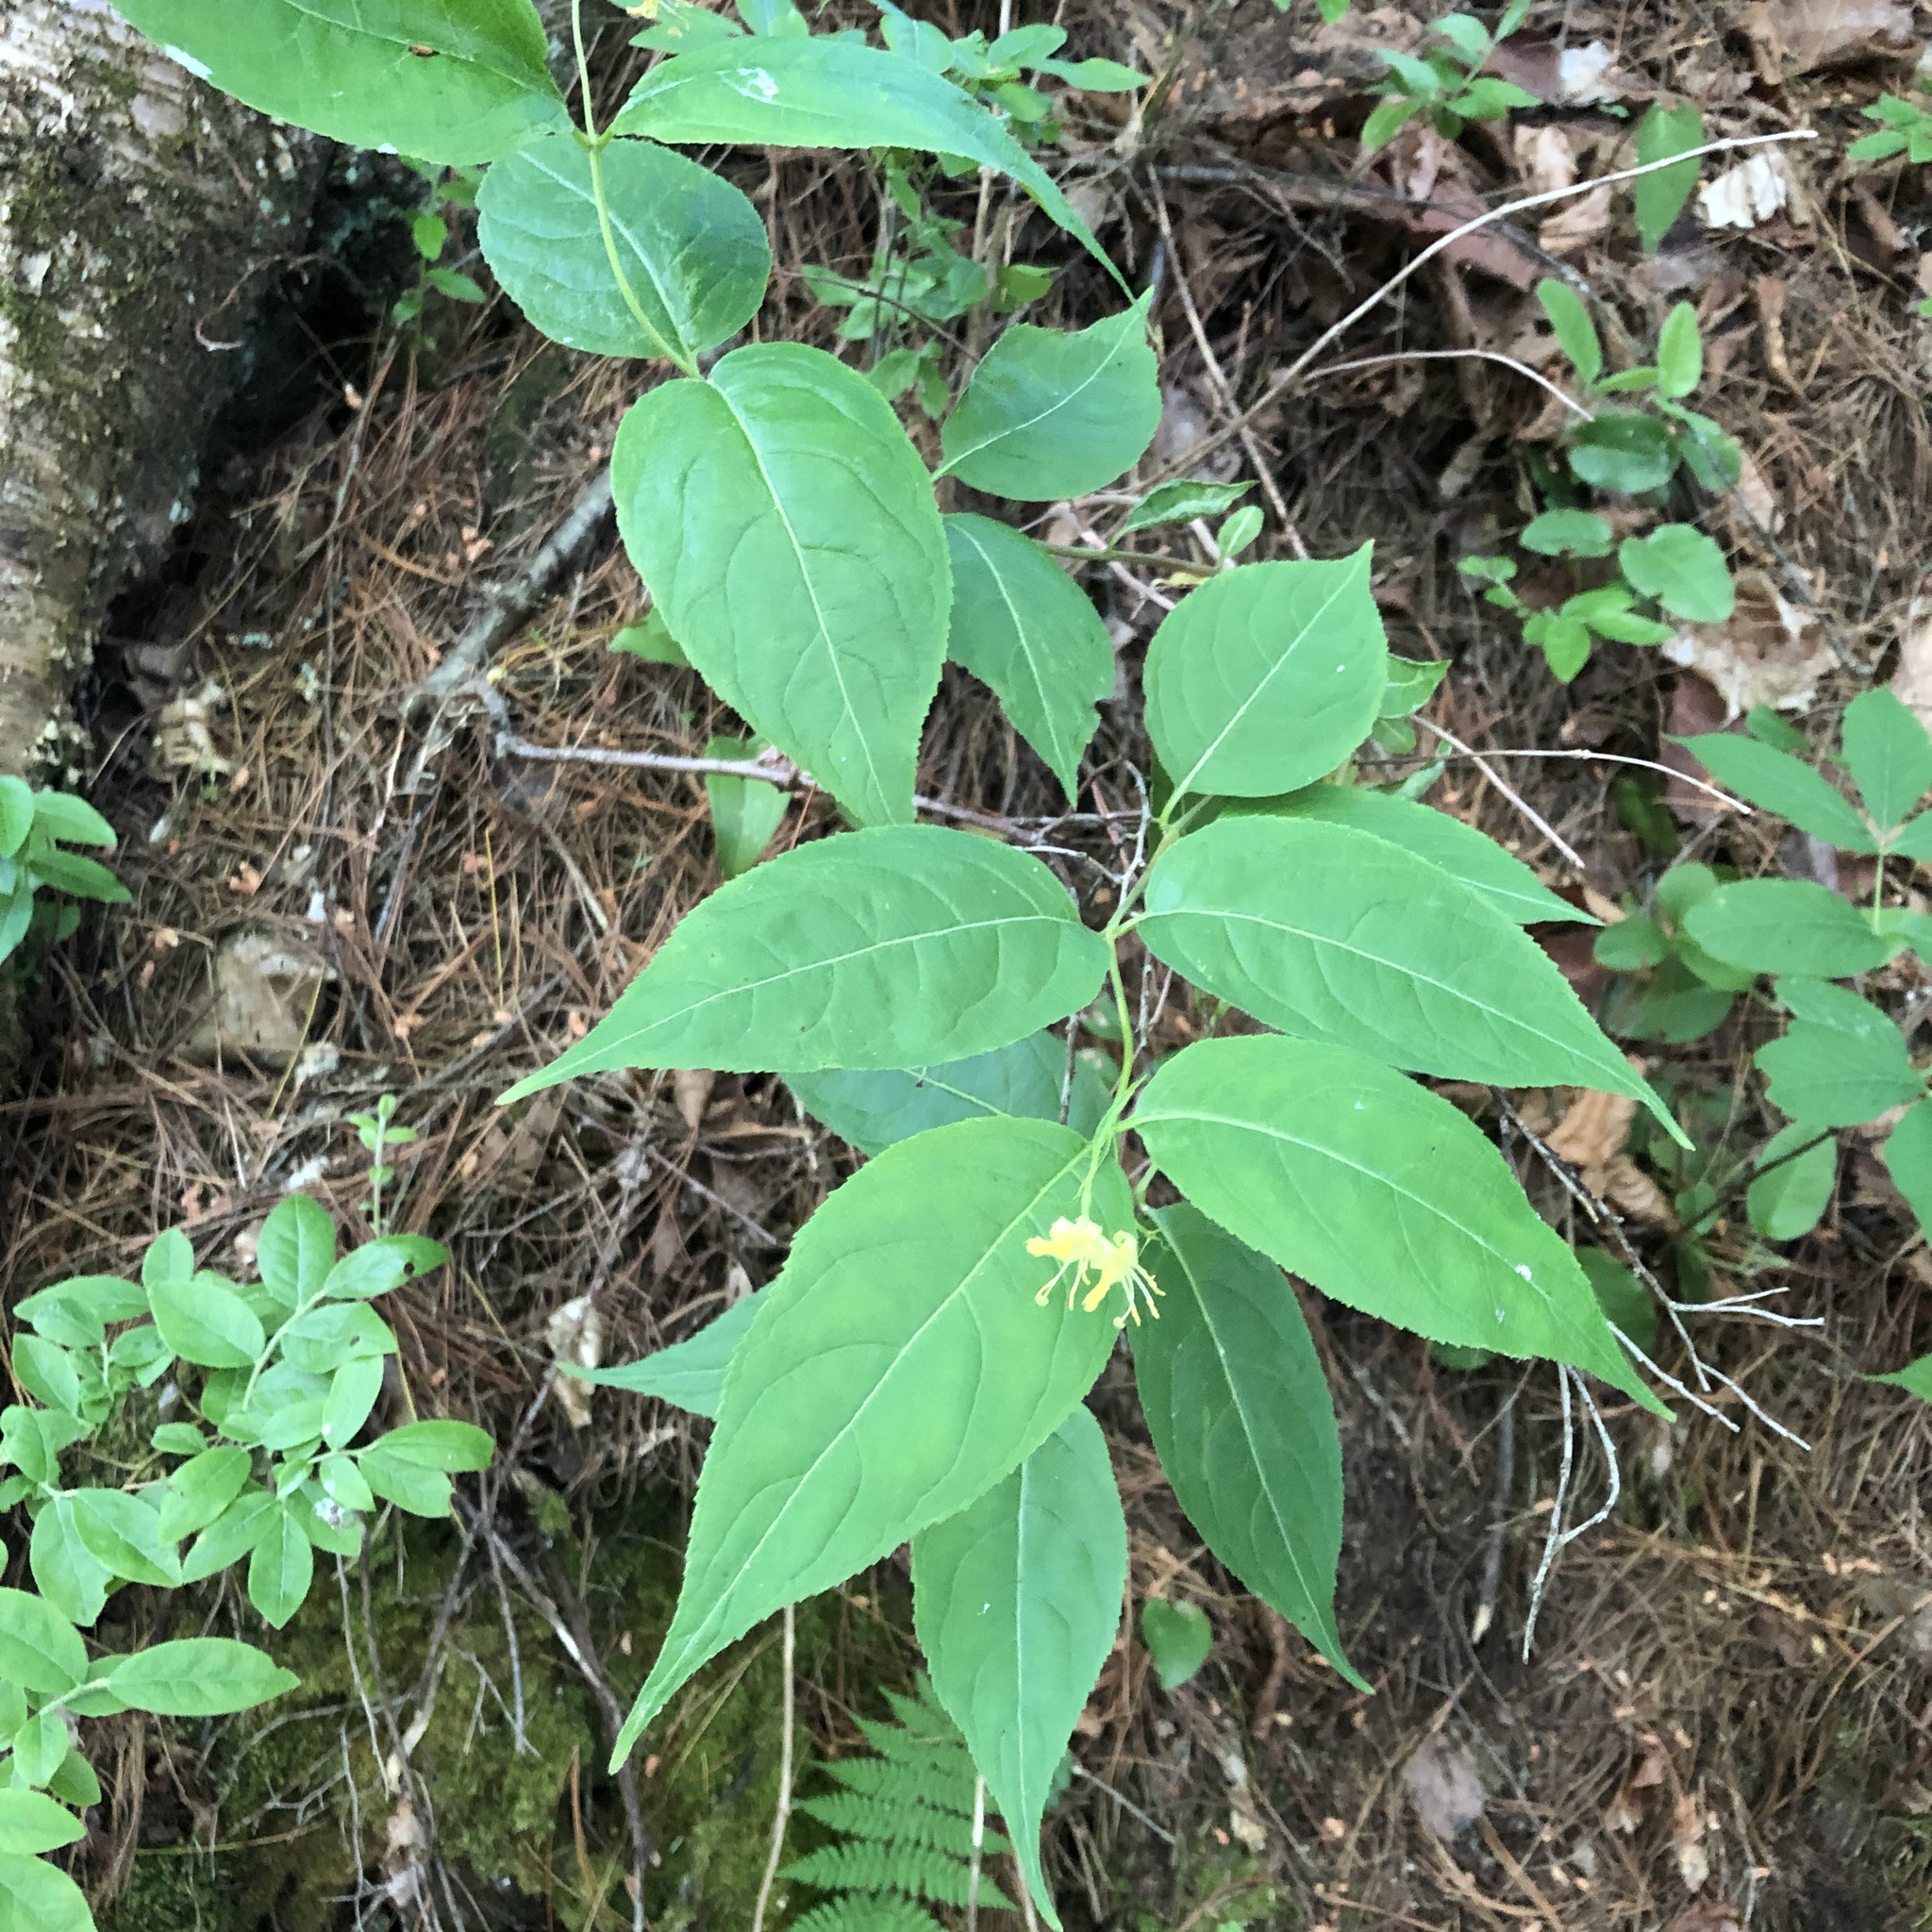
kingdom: Plantae
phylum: Tracheophyta
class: Magnoliopsida
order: Dipsacales
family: Caprifoliaceae
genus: Diervilla
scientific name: Diervilla lonicera
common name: Bush-honeysuckle
